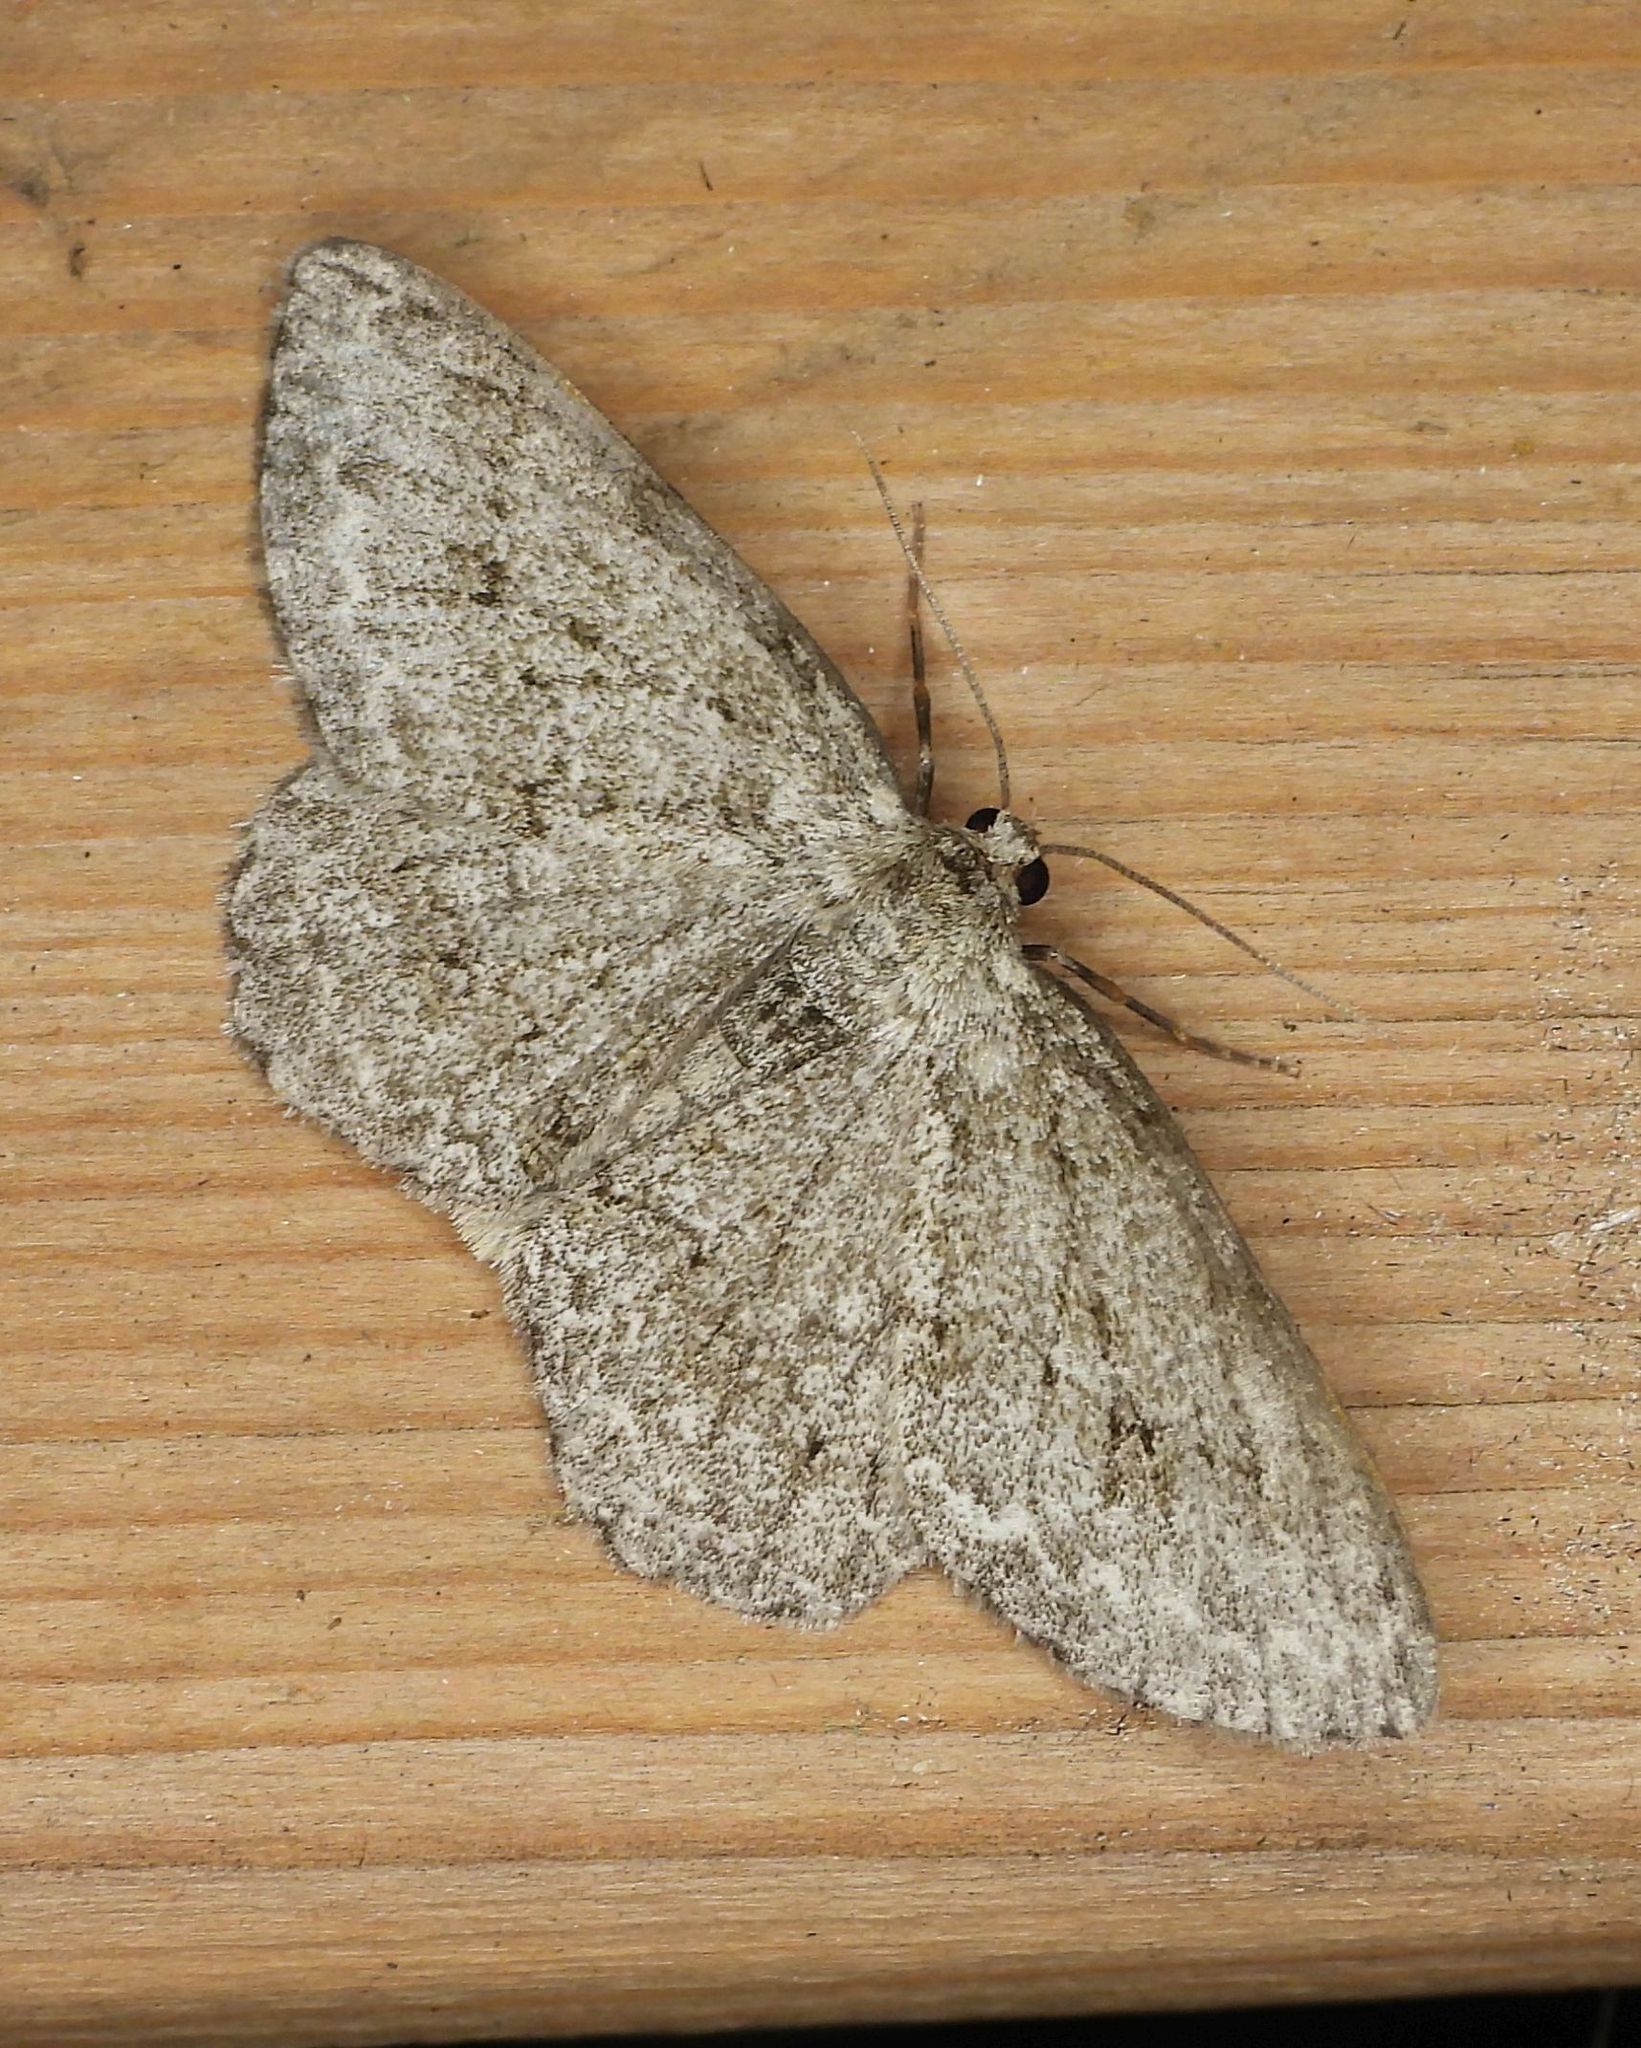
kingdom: Animalia
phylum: Arthropoda
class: Insecta
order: Lepidoptera
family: Geometridae
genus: Ectropis
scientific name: Ectropis crepuscularia
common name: Engrailed
